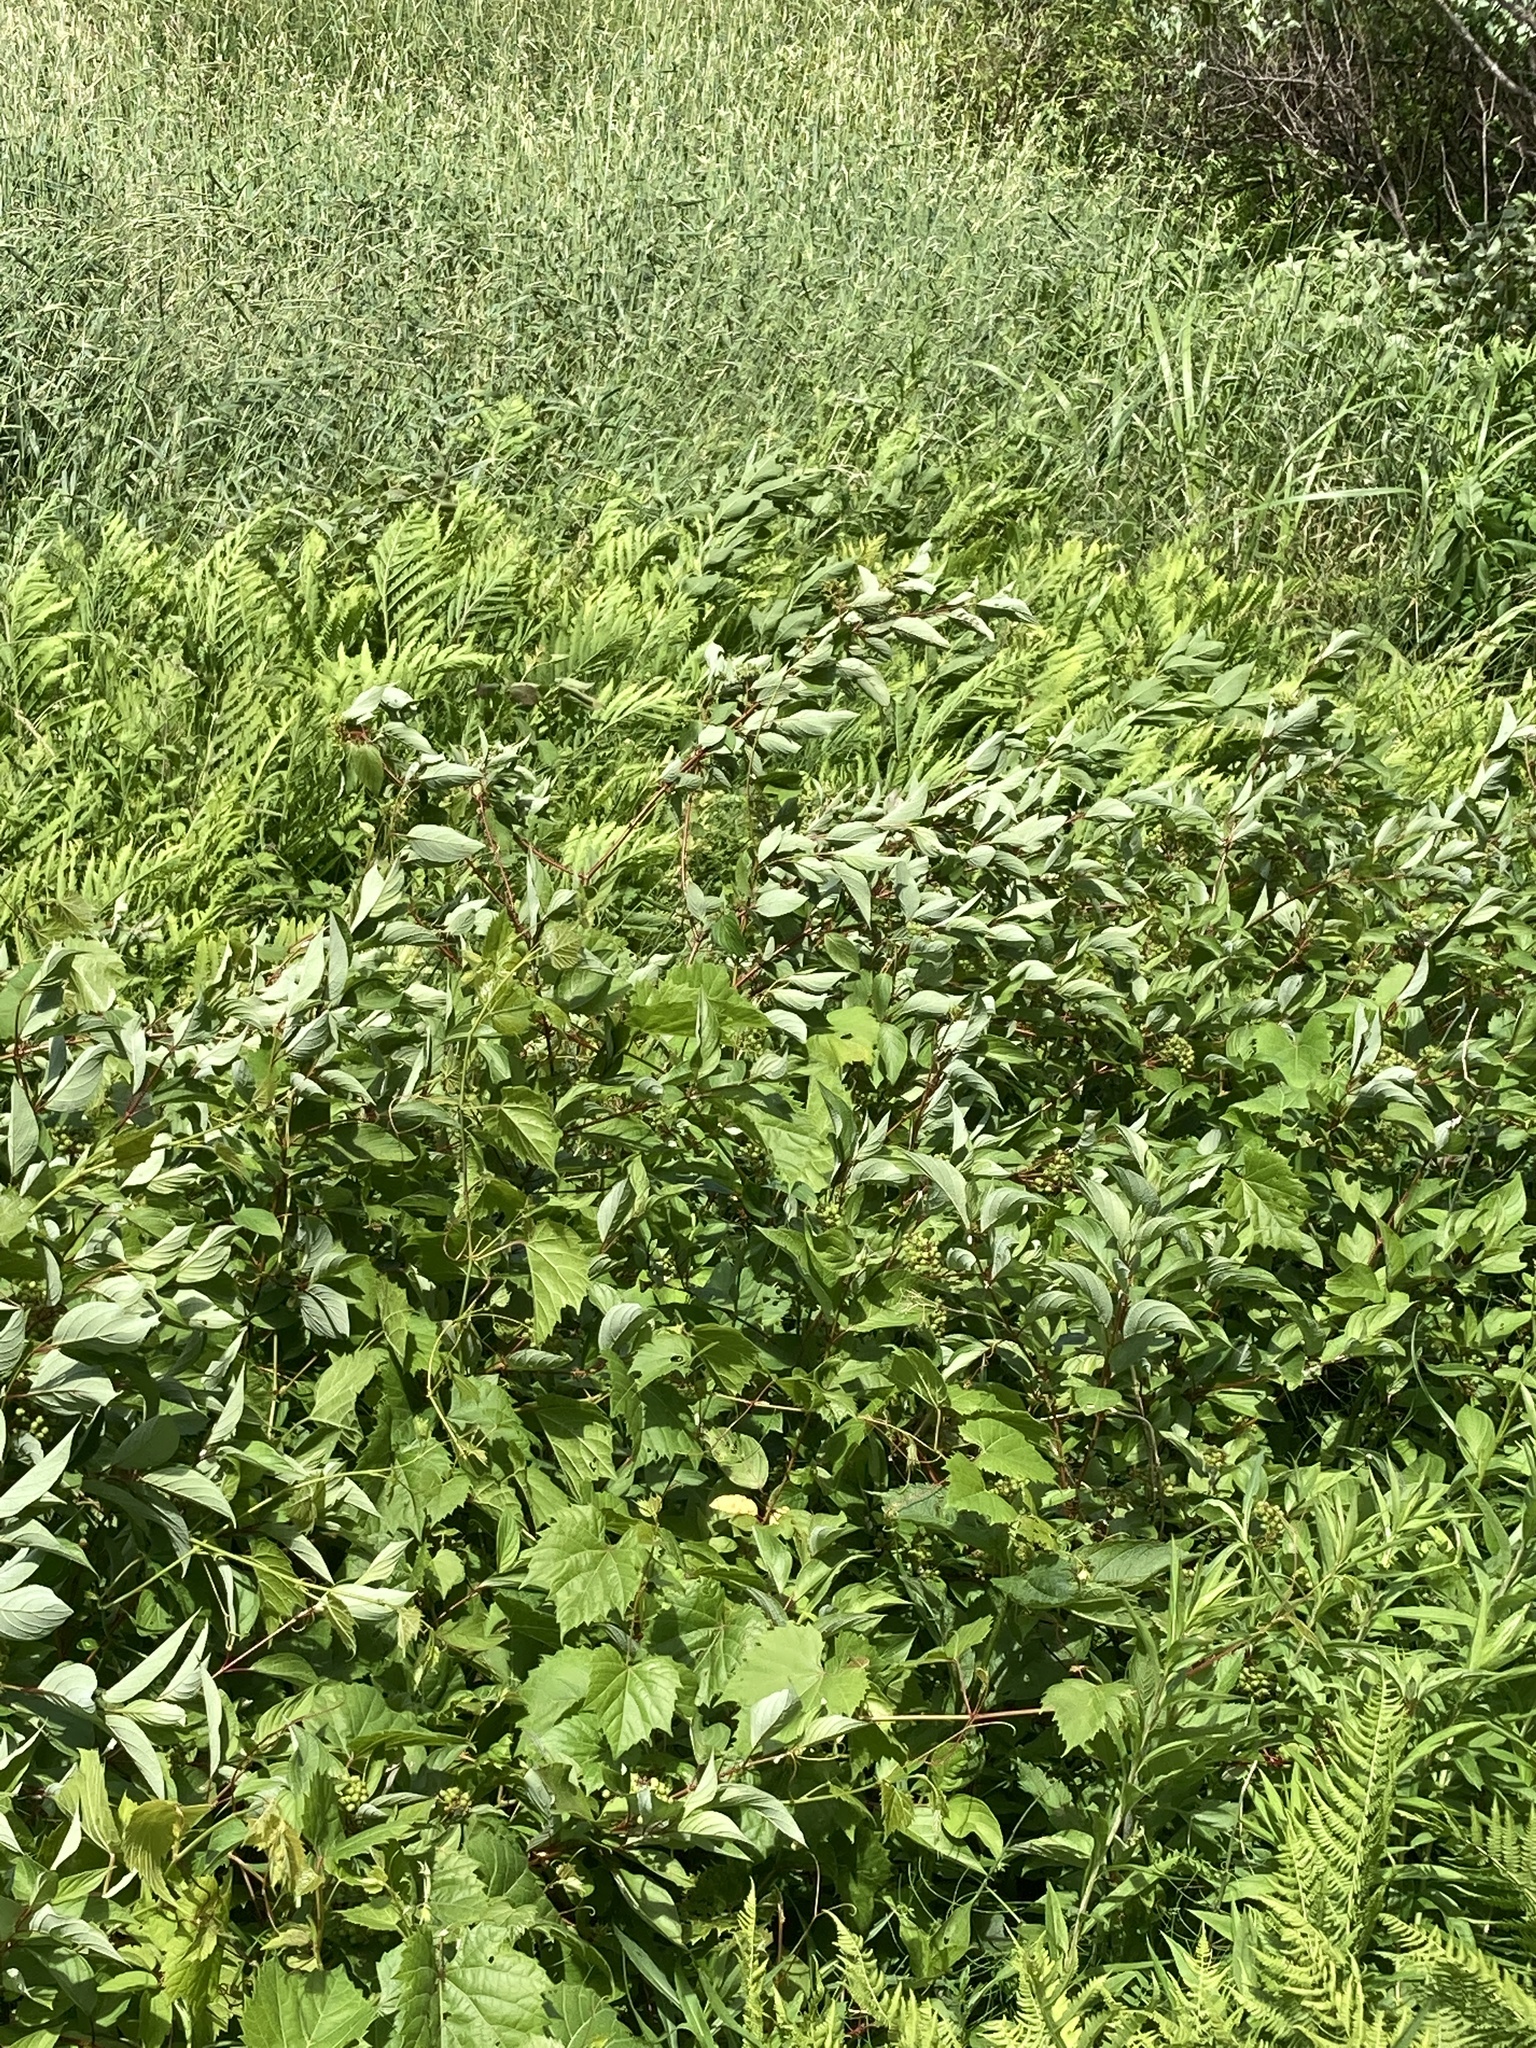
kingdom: Plantae
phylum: Tracheophyta
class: Magnoliopsida
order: Cornales
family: Cornaceae
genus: Cornus
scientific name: Cornus sericea
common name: Red-osier dogwood
